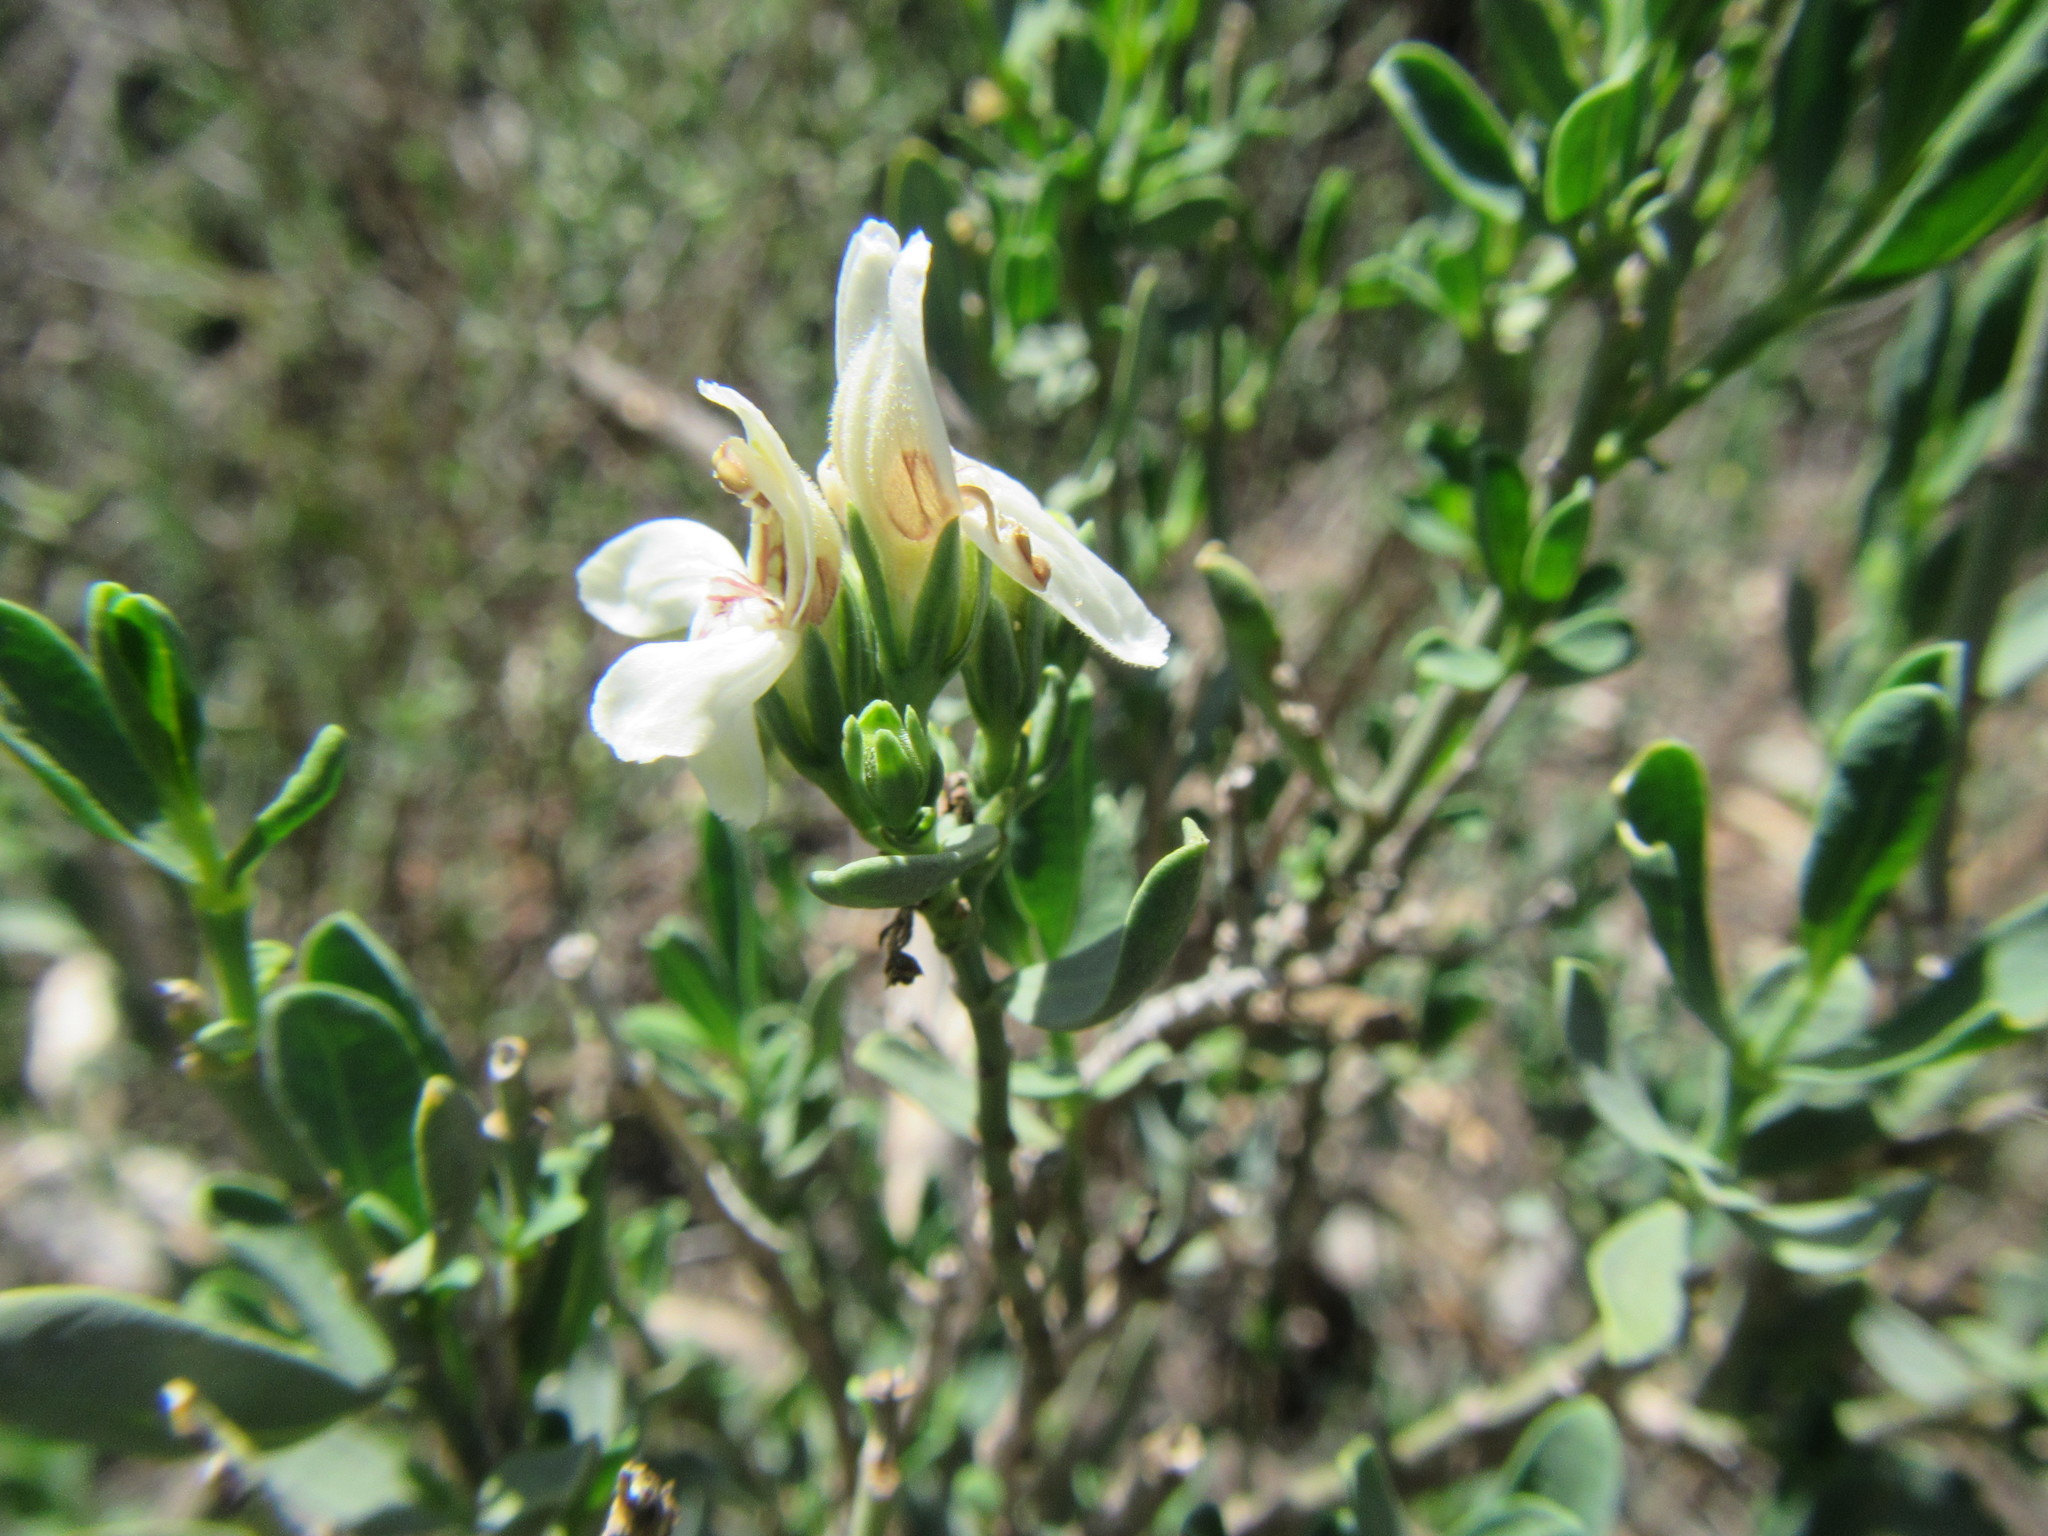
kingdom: Plantae
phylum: Tracheophyta
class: Magnoliopsida
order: Lamiales
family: Acanthaceae
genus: Justicia
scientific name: Justicia cuneata
